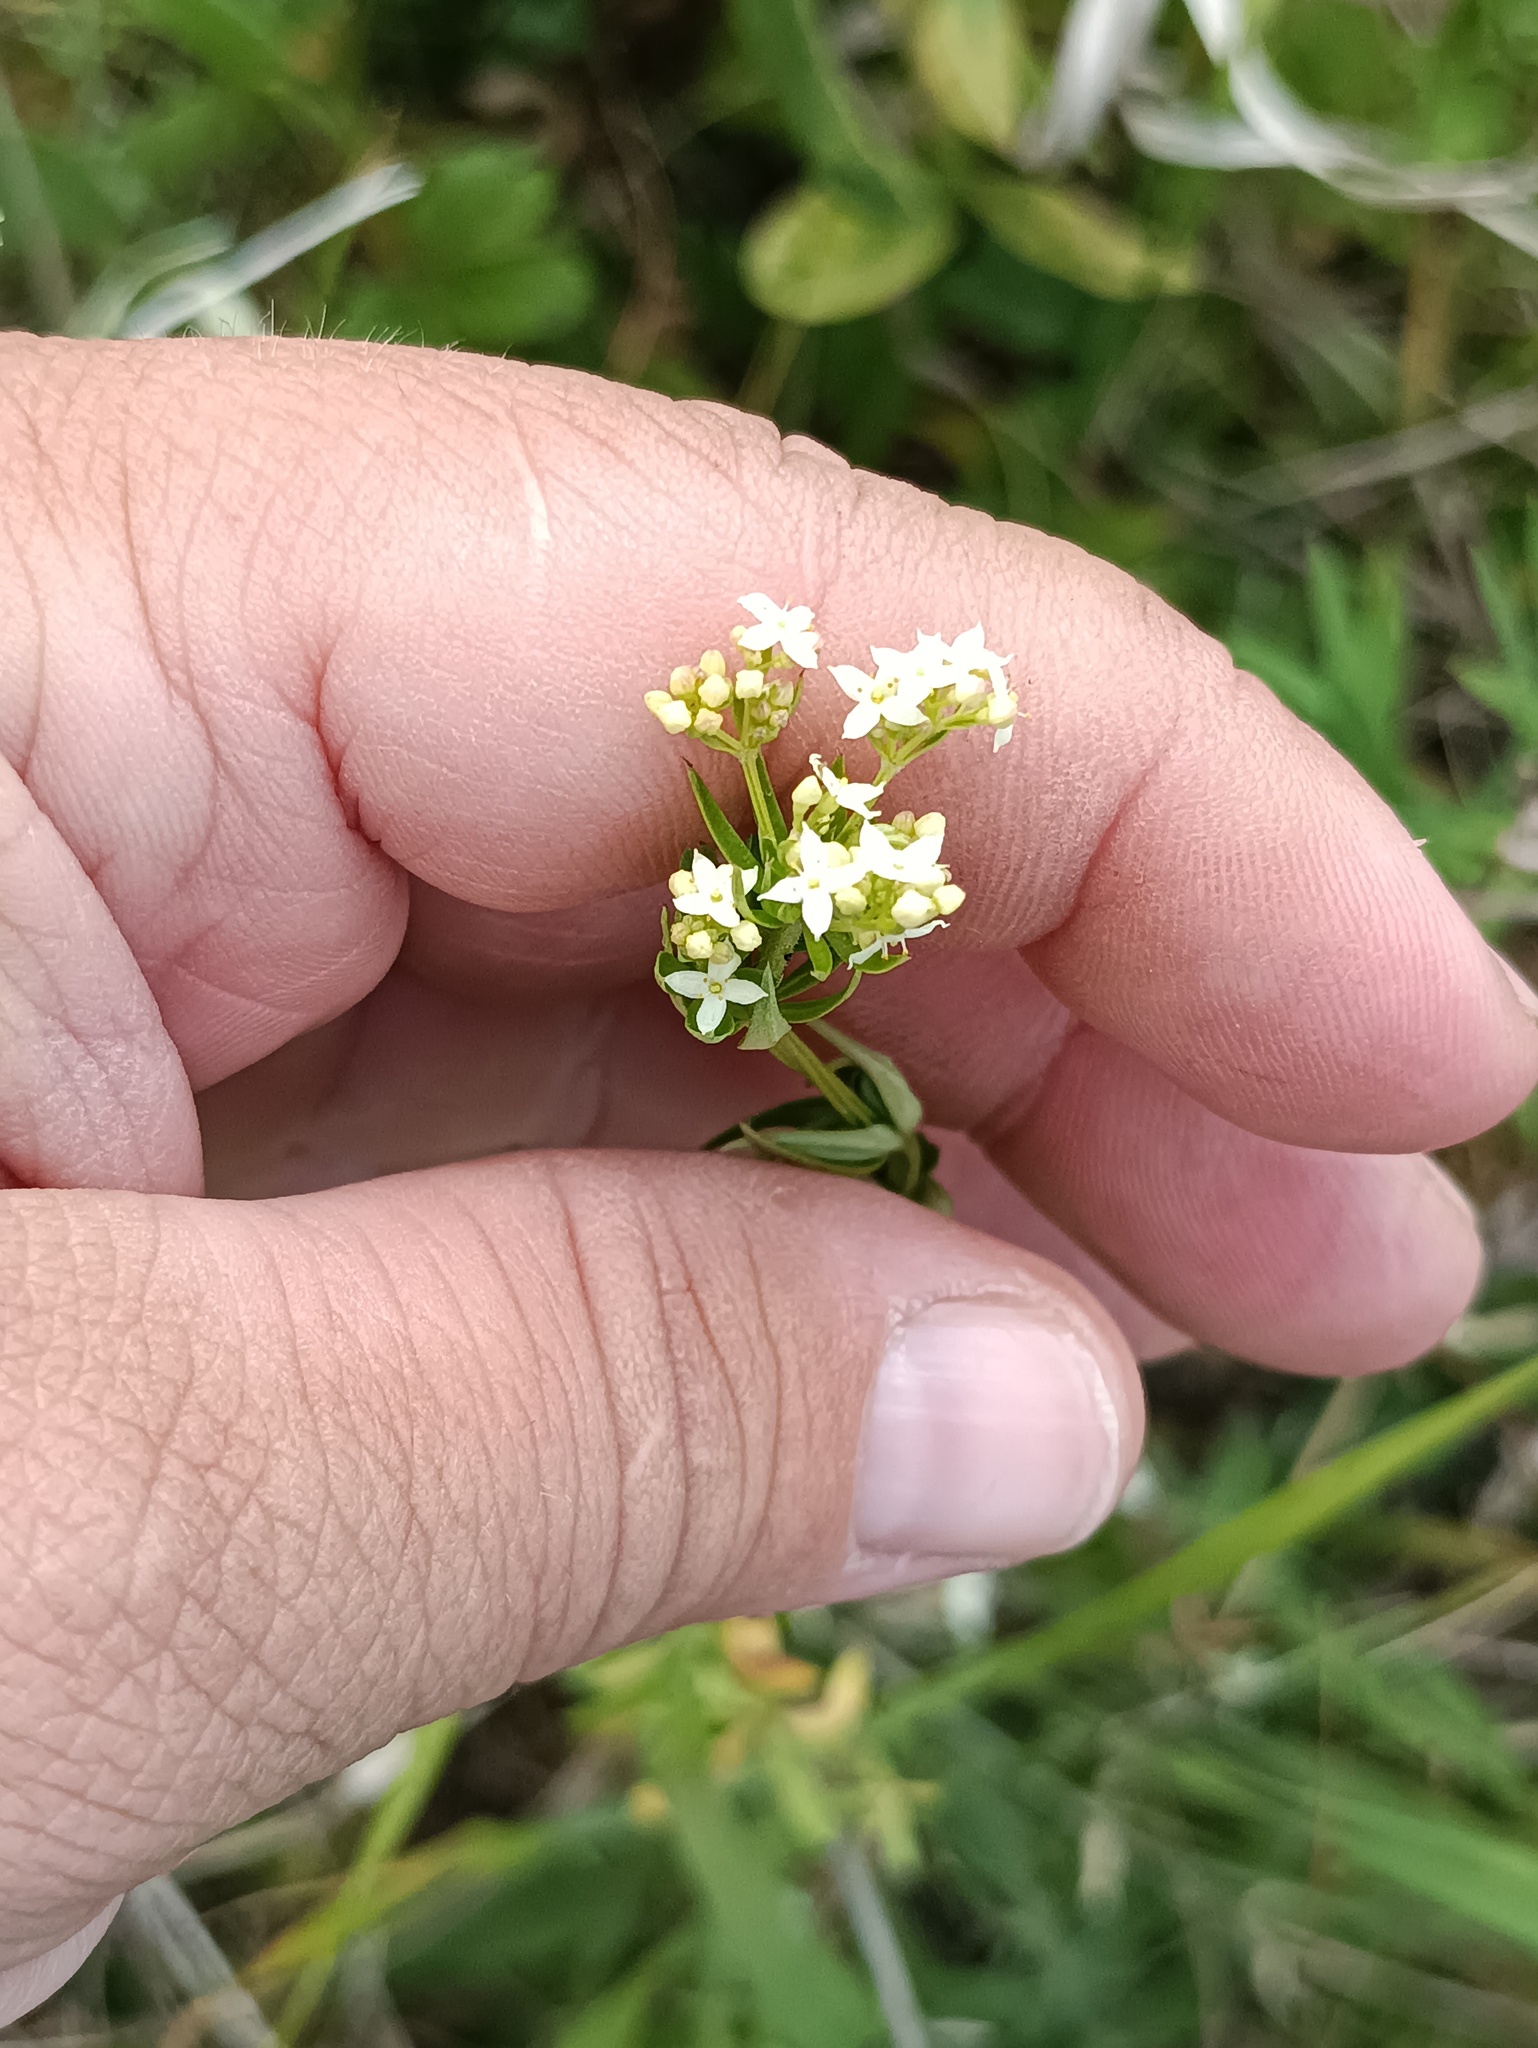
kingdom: Plantae
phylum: Tracheophyta
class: Magnoliopsida
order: Gentianales
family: Rubiaceae
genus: Galium
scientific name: Galium mollugo
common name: Hedge bedstraw
